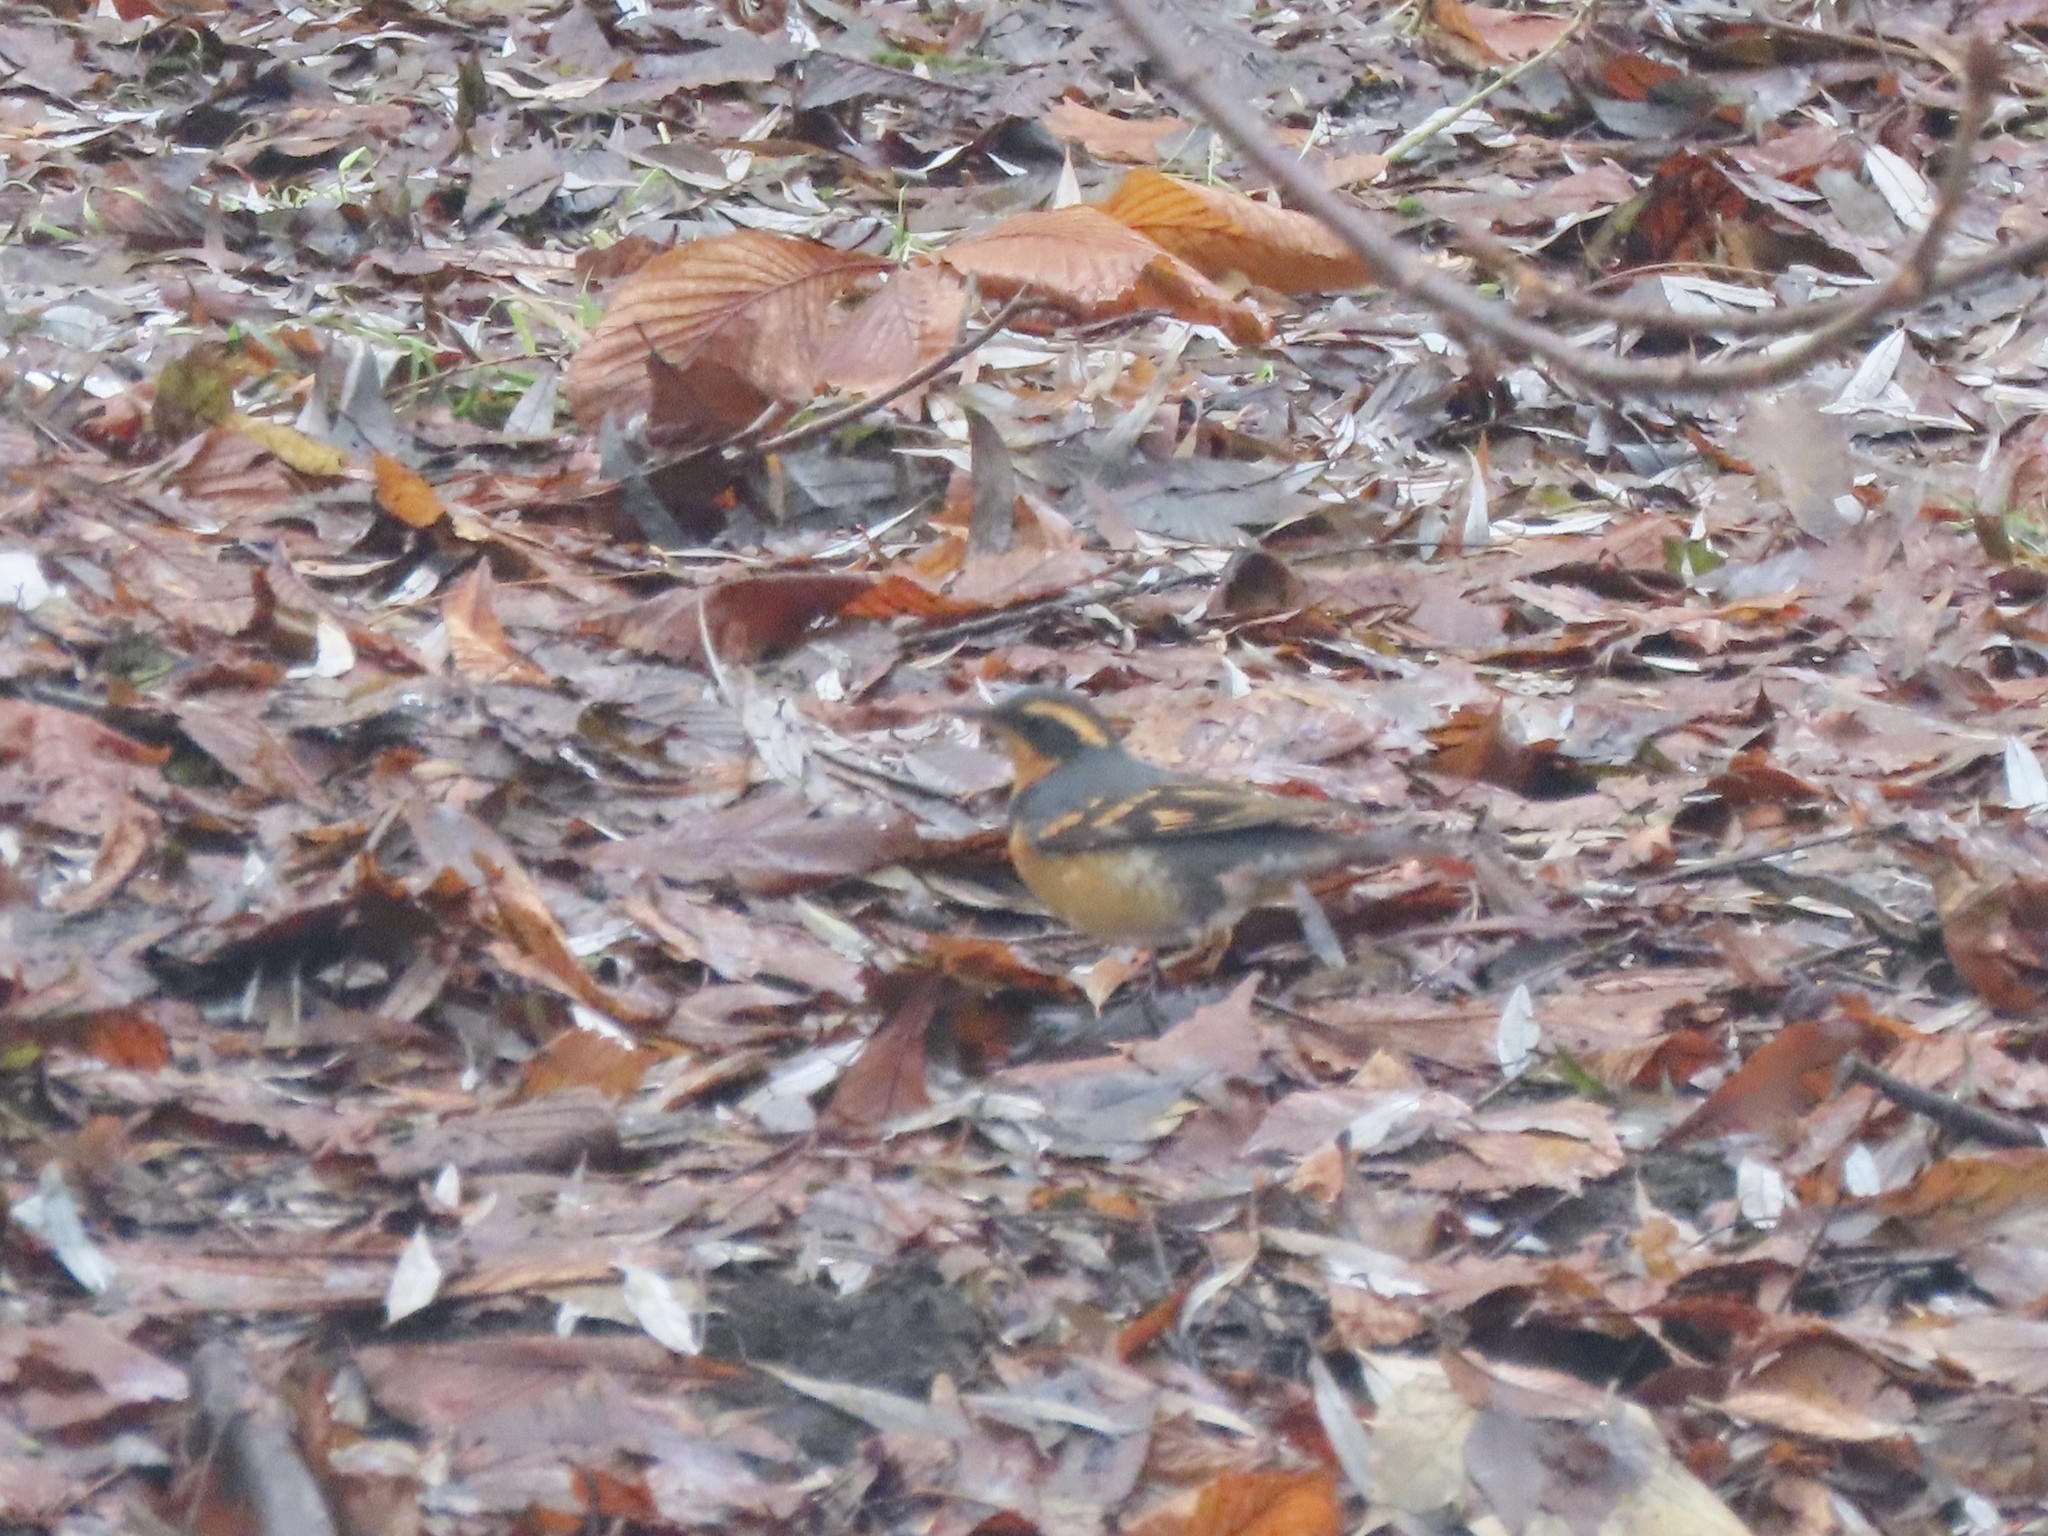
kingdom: Animalia
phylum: Chordata
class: Aves
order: Passeriformes
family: Turdidae
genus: Ixoreus
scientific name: Ixoreus naevius
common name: Varied thrush
